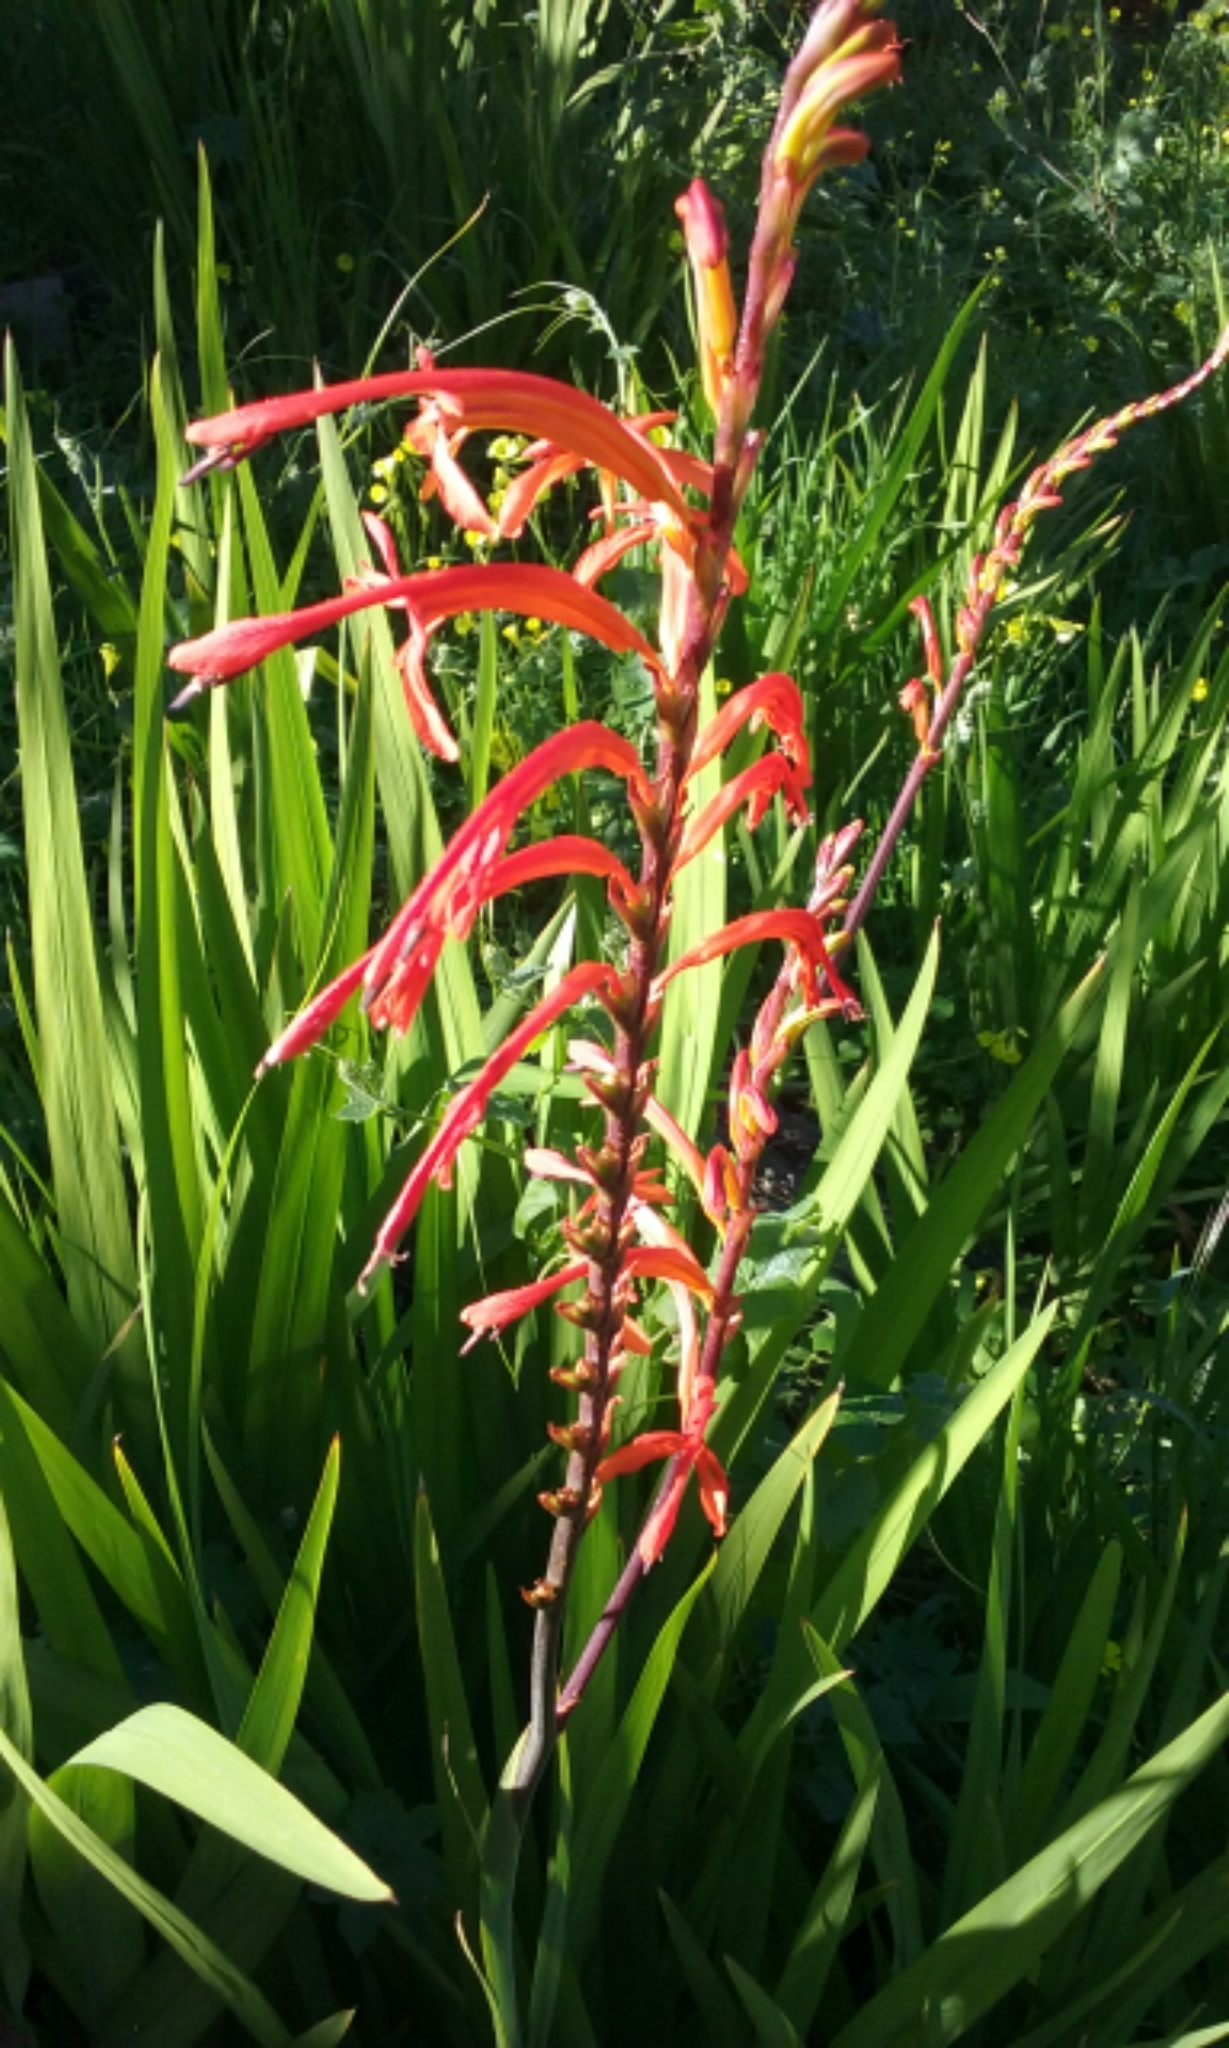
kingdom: Plantae
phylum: Tracheophyta
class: Liliopsida
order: Asparagales
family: Iridaceae
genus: Chasmanthe
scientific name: Chasmanthe floribunda
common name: African cornflag
